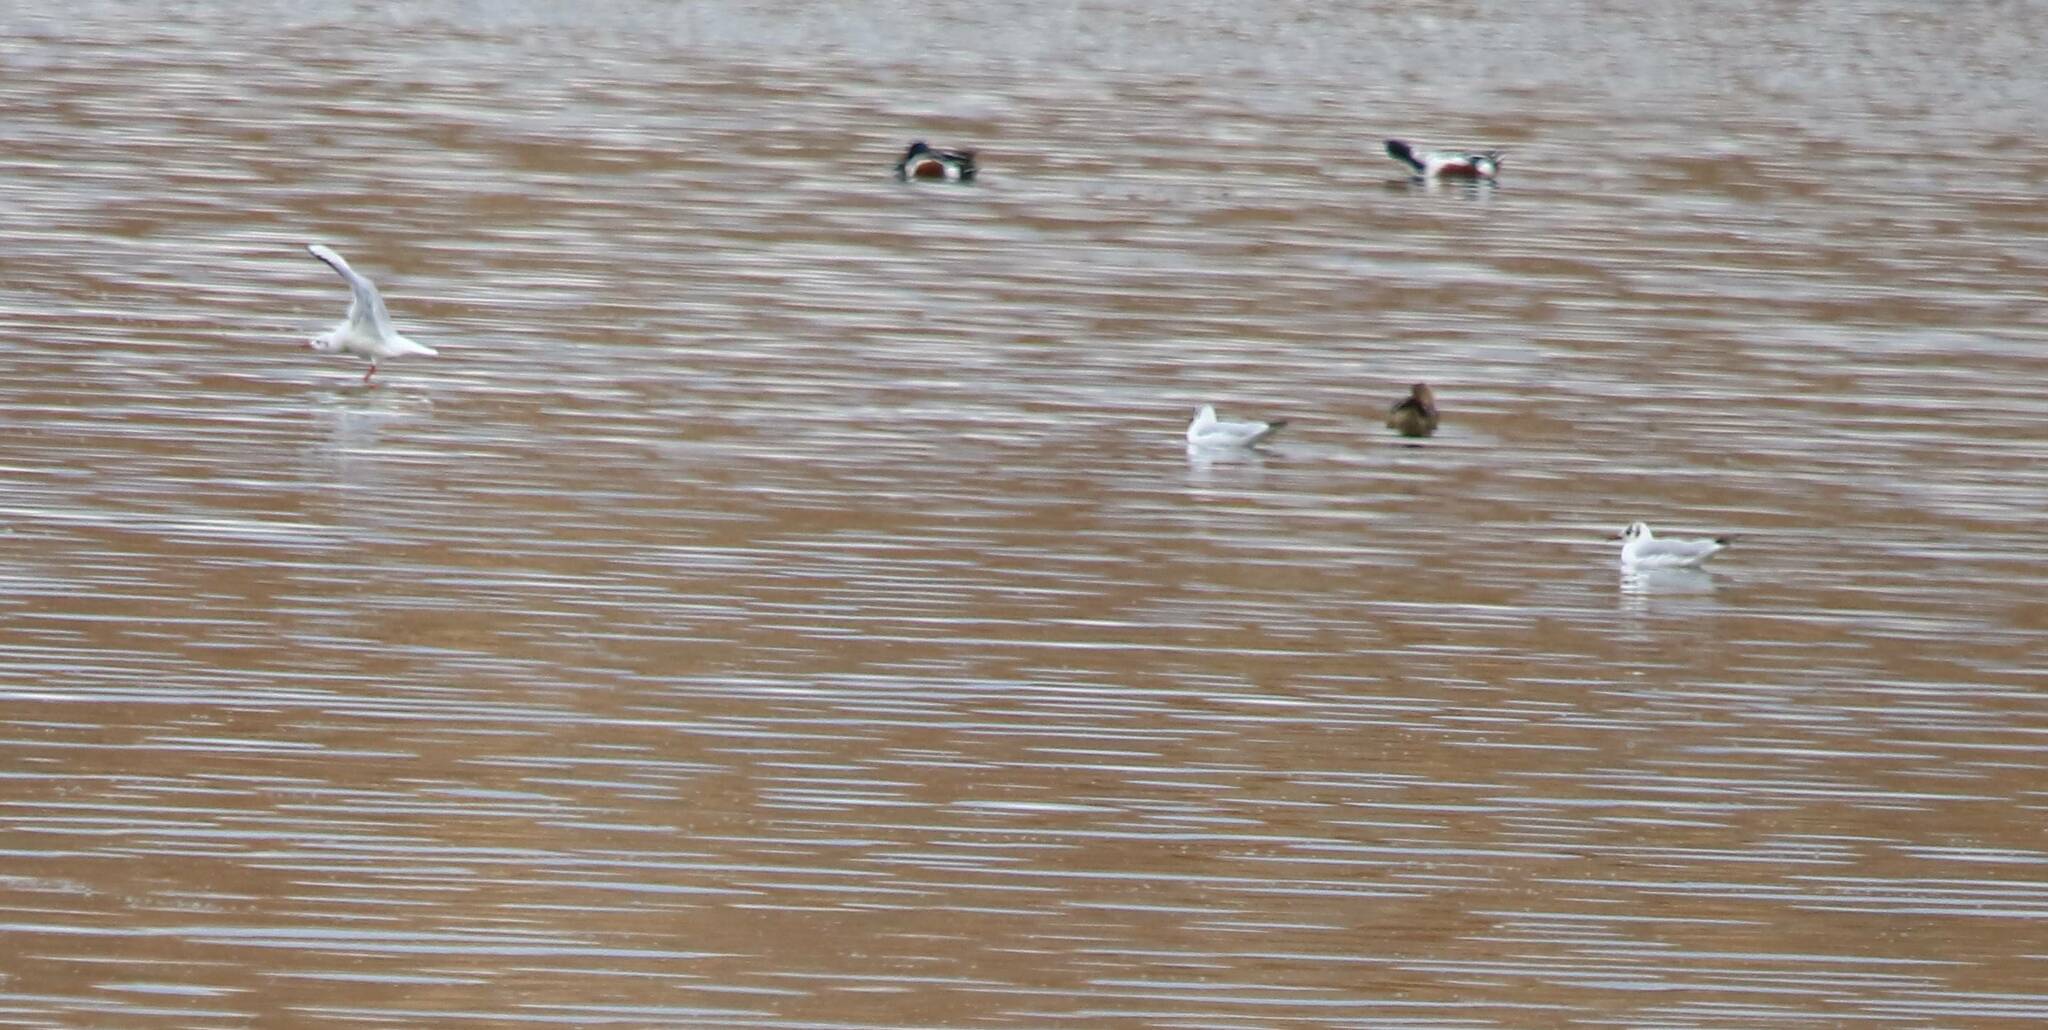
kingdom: Animalia
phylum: Chordata
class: Aves
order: Charadriiformes
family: Laridae
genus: Chroicocephalus
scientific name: Chroicocephalus ridibundus
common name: Black-headed gull
